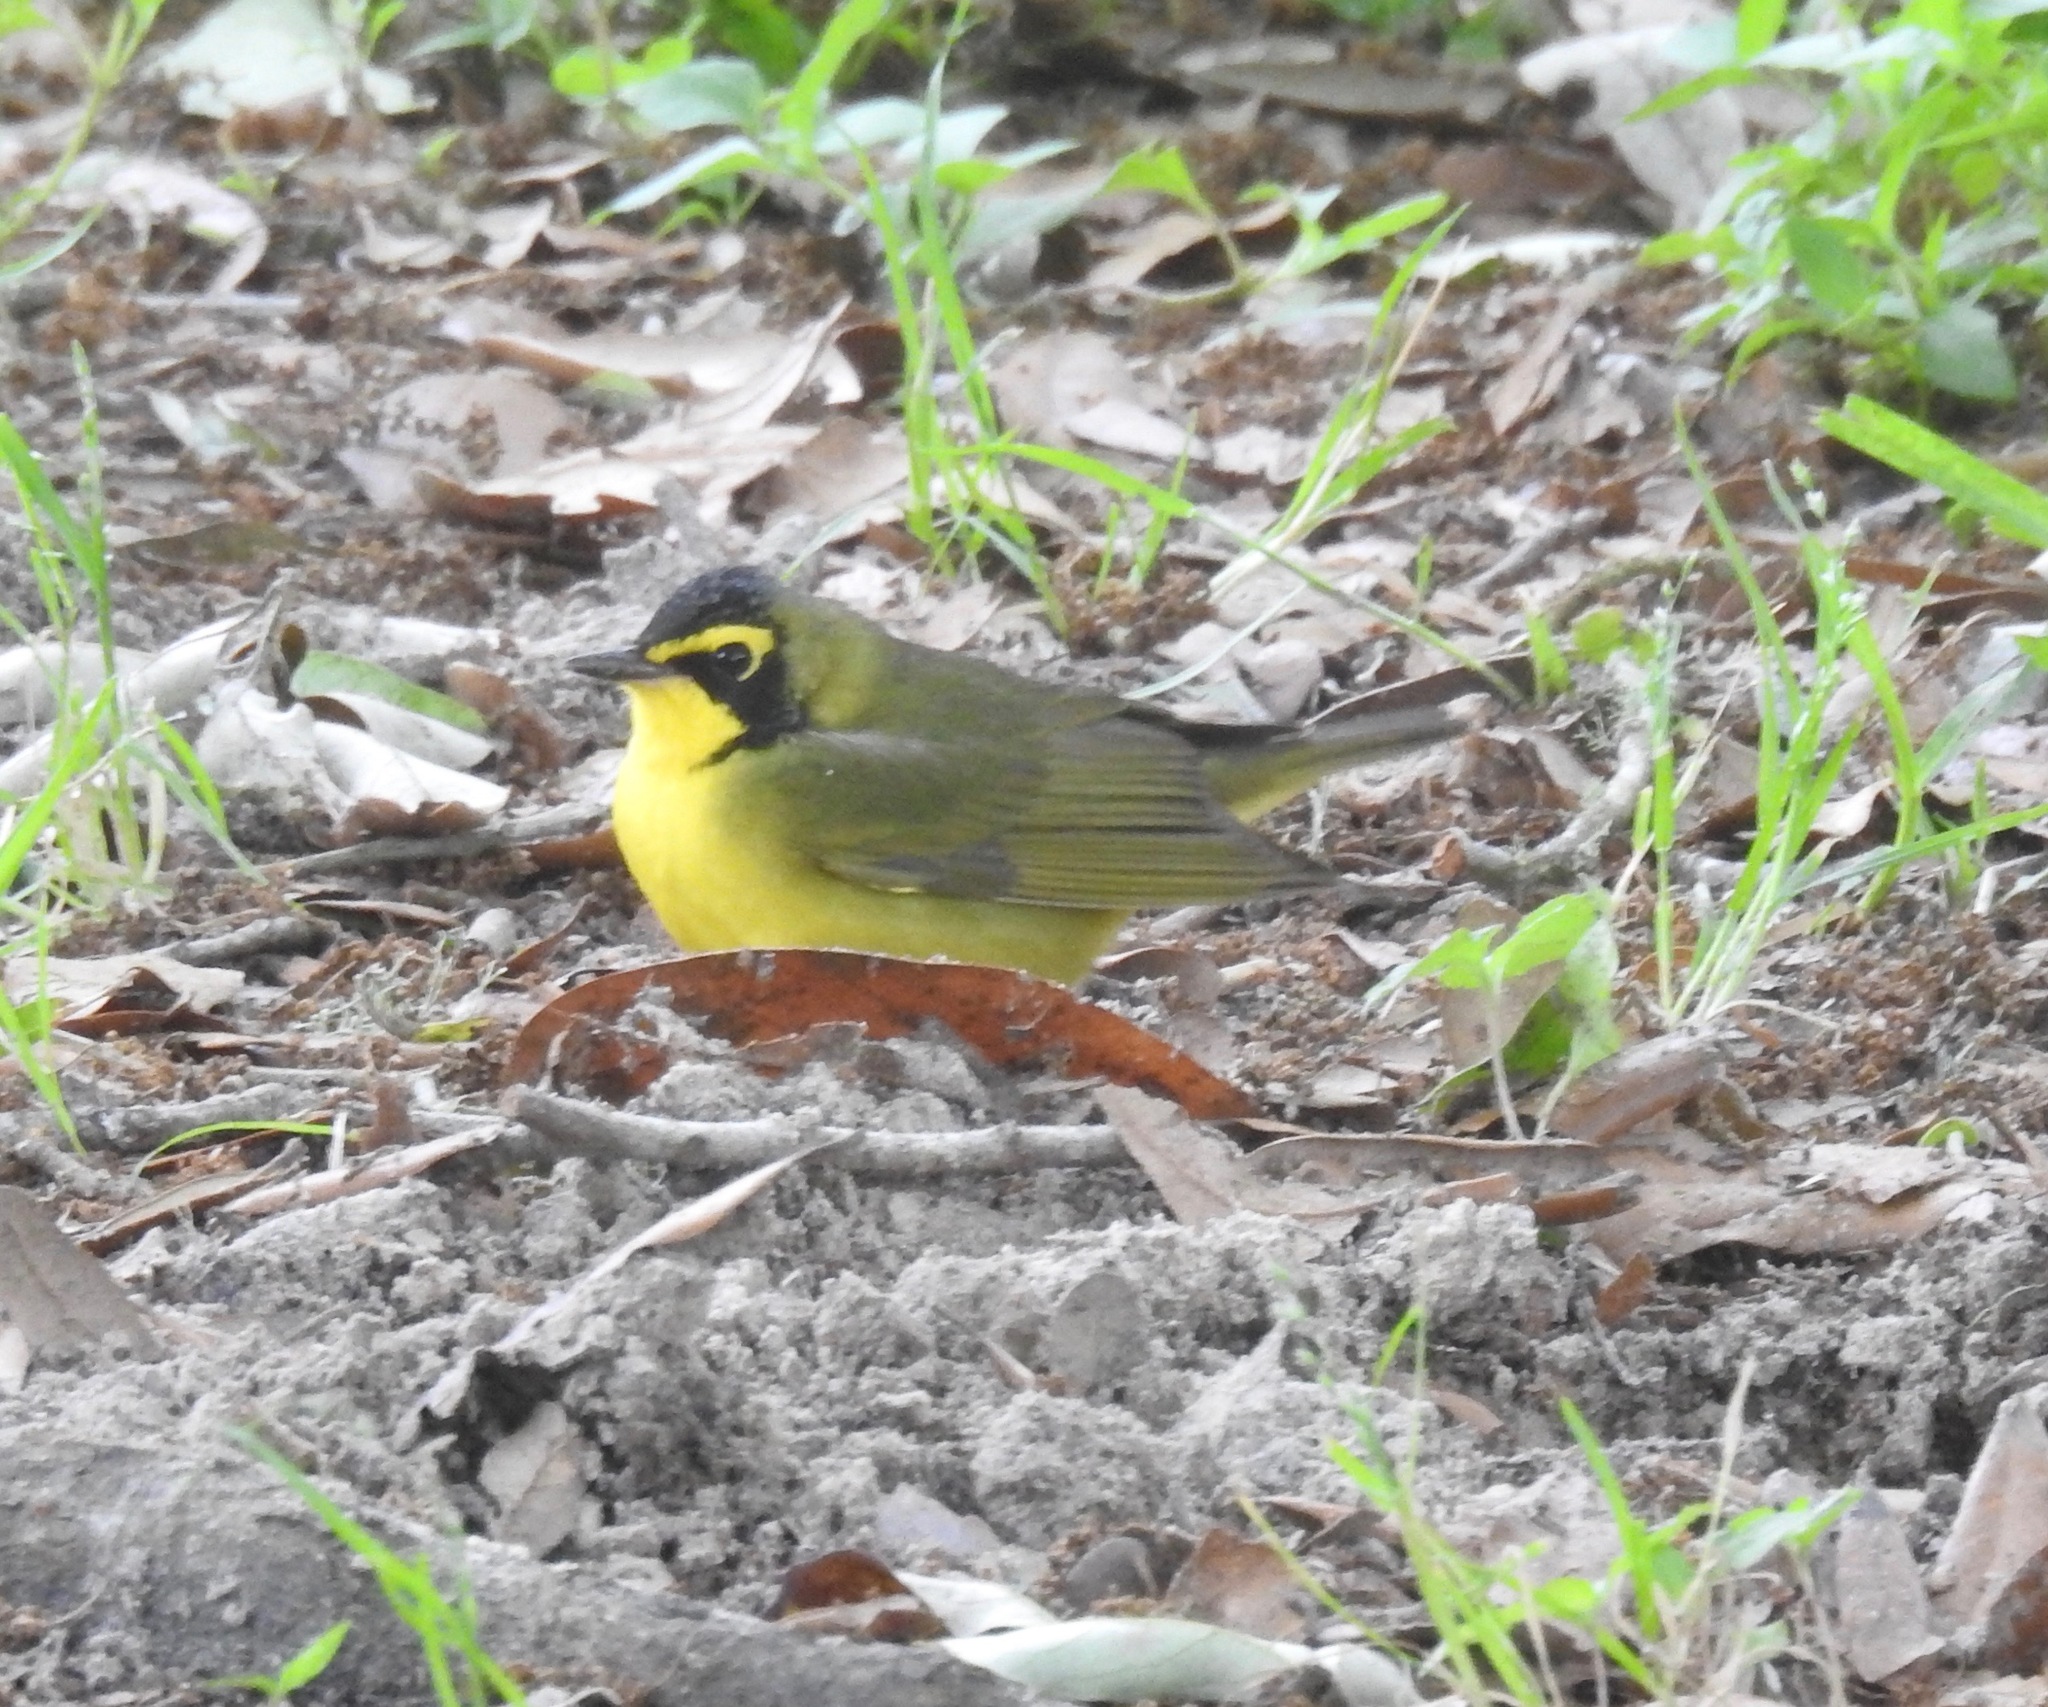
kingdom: Animalia
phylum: Chordata
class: Aves
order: Passeriformes
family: Parulidae
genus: Geothlypis
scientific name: Geothlypis formosa
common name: Kentucky warbler
